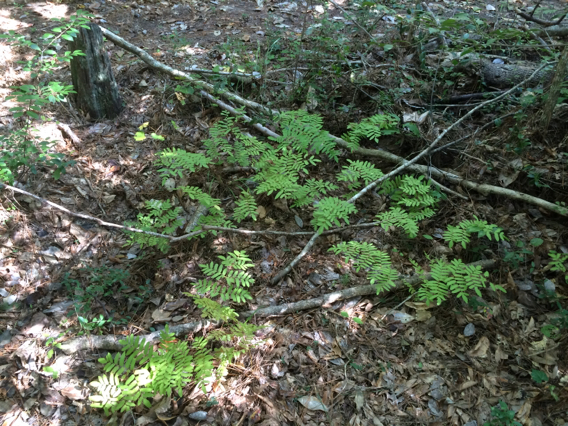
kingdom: Plantae
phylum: Tracheophyta
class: Polypodiopsida
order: Osmundales
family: Osmundaceae
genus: Osmunda
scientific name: Osmunda spectabilis
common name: American royal fern
